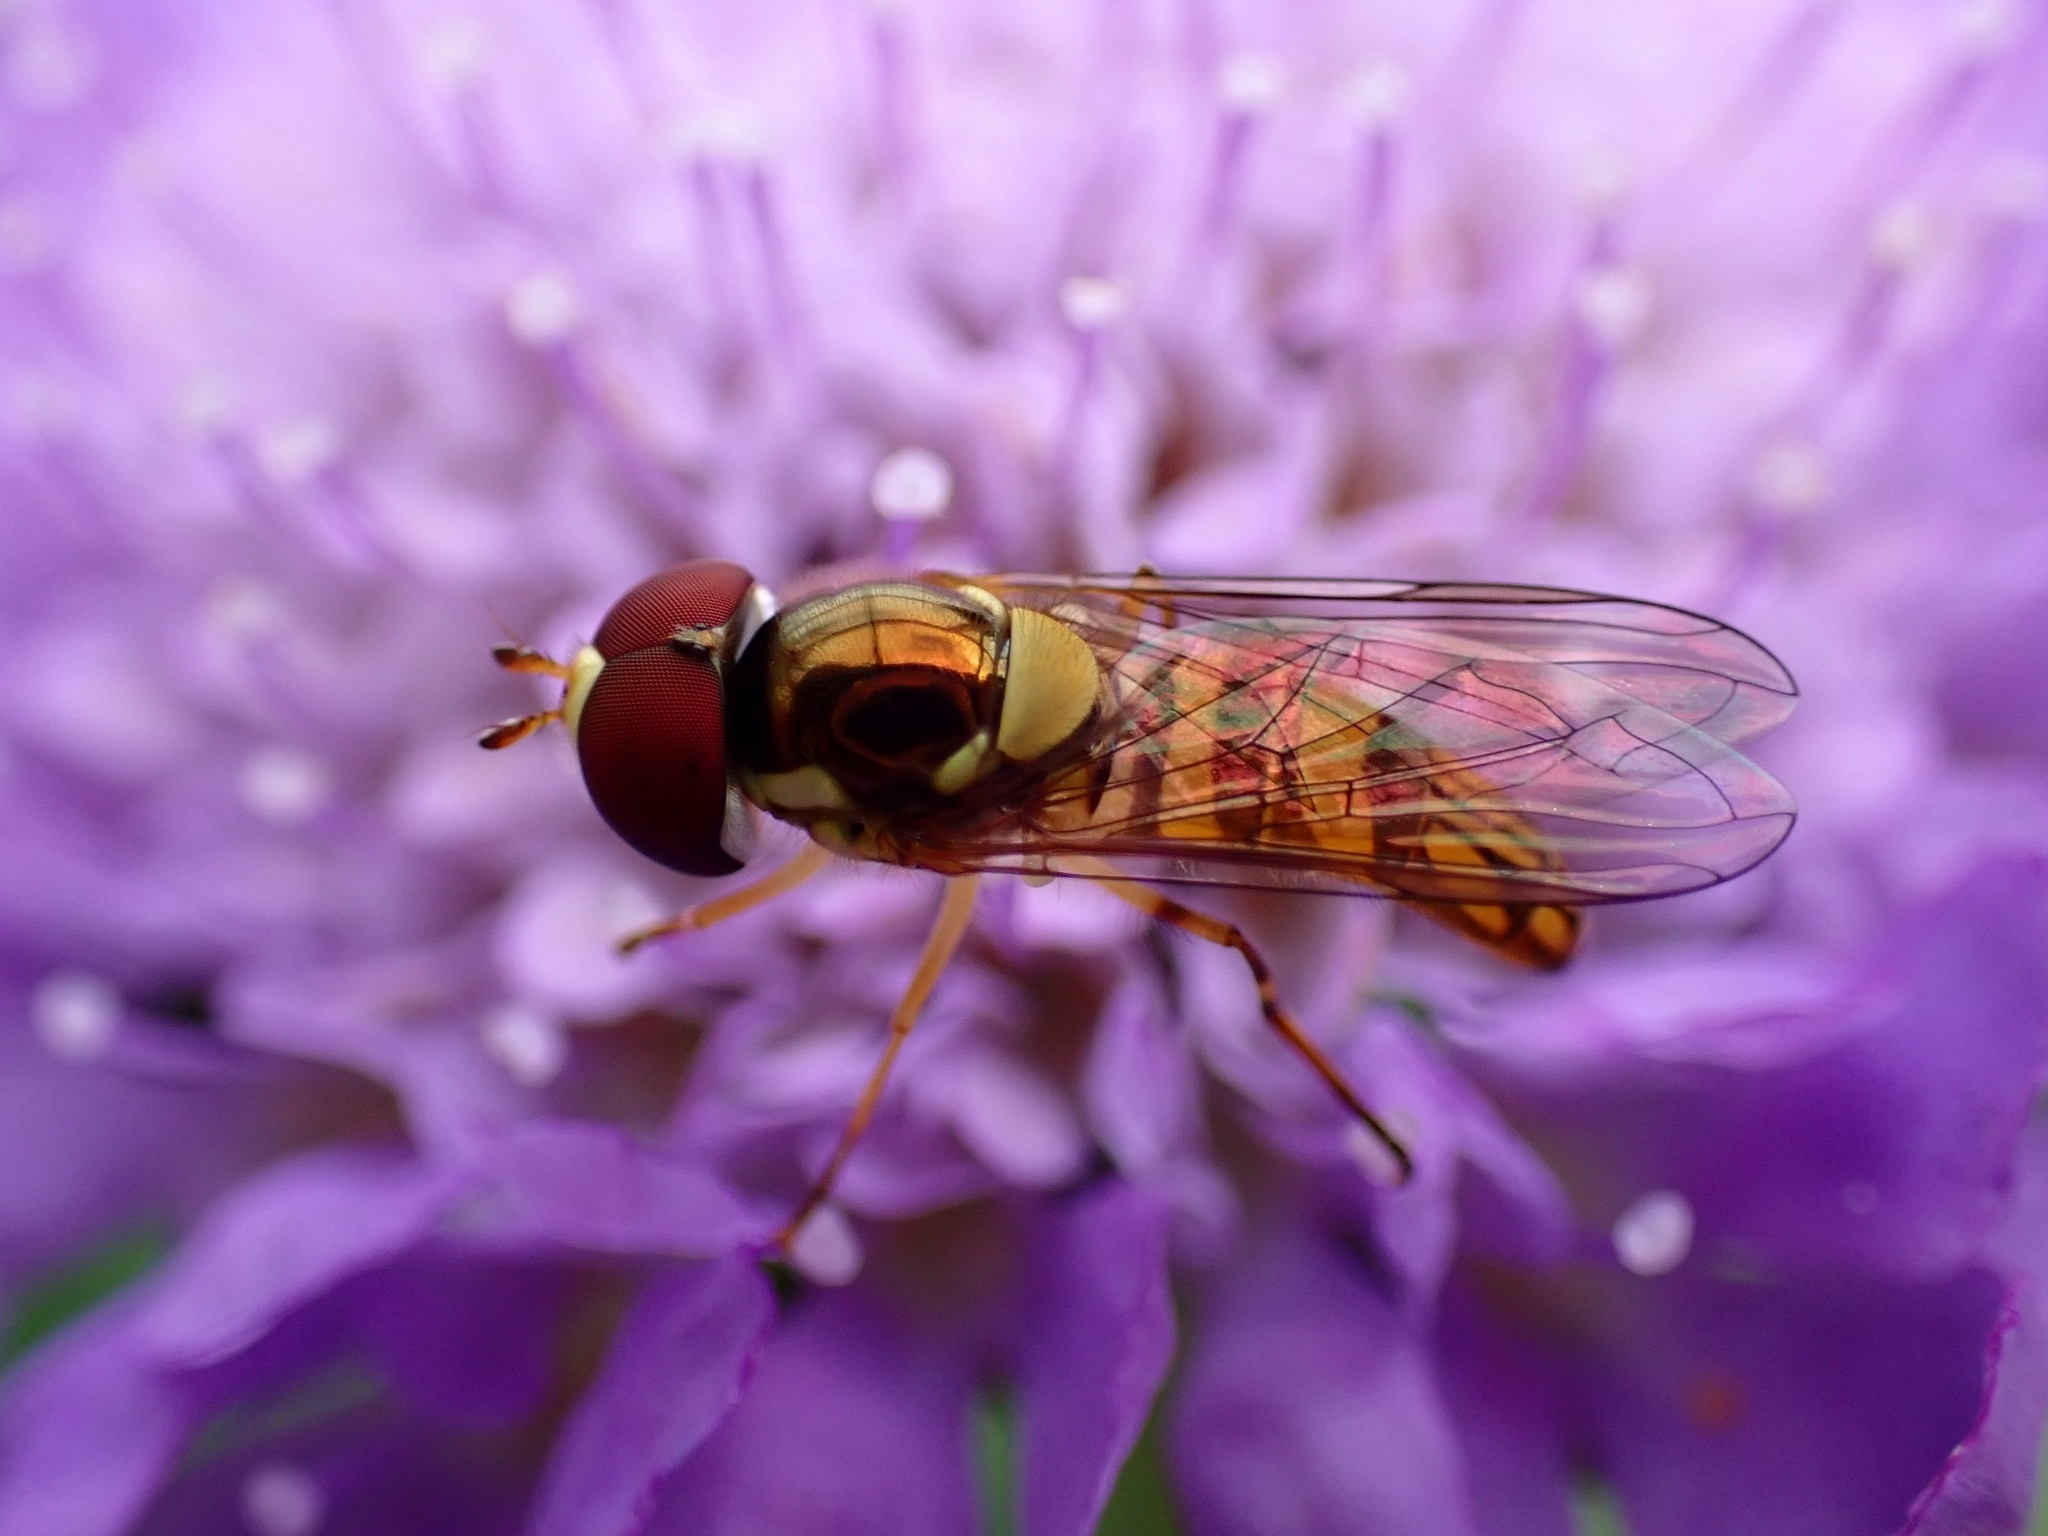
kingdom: Animalia
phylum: Arthropoda
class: Insecta
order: Diptera
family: Syrphidae
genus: Allograpta
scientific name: Allograpta obliqua
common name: Common oblique syrphid
